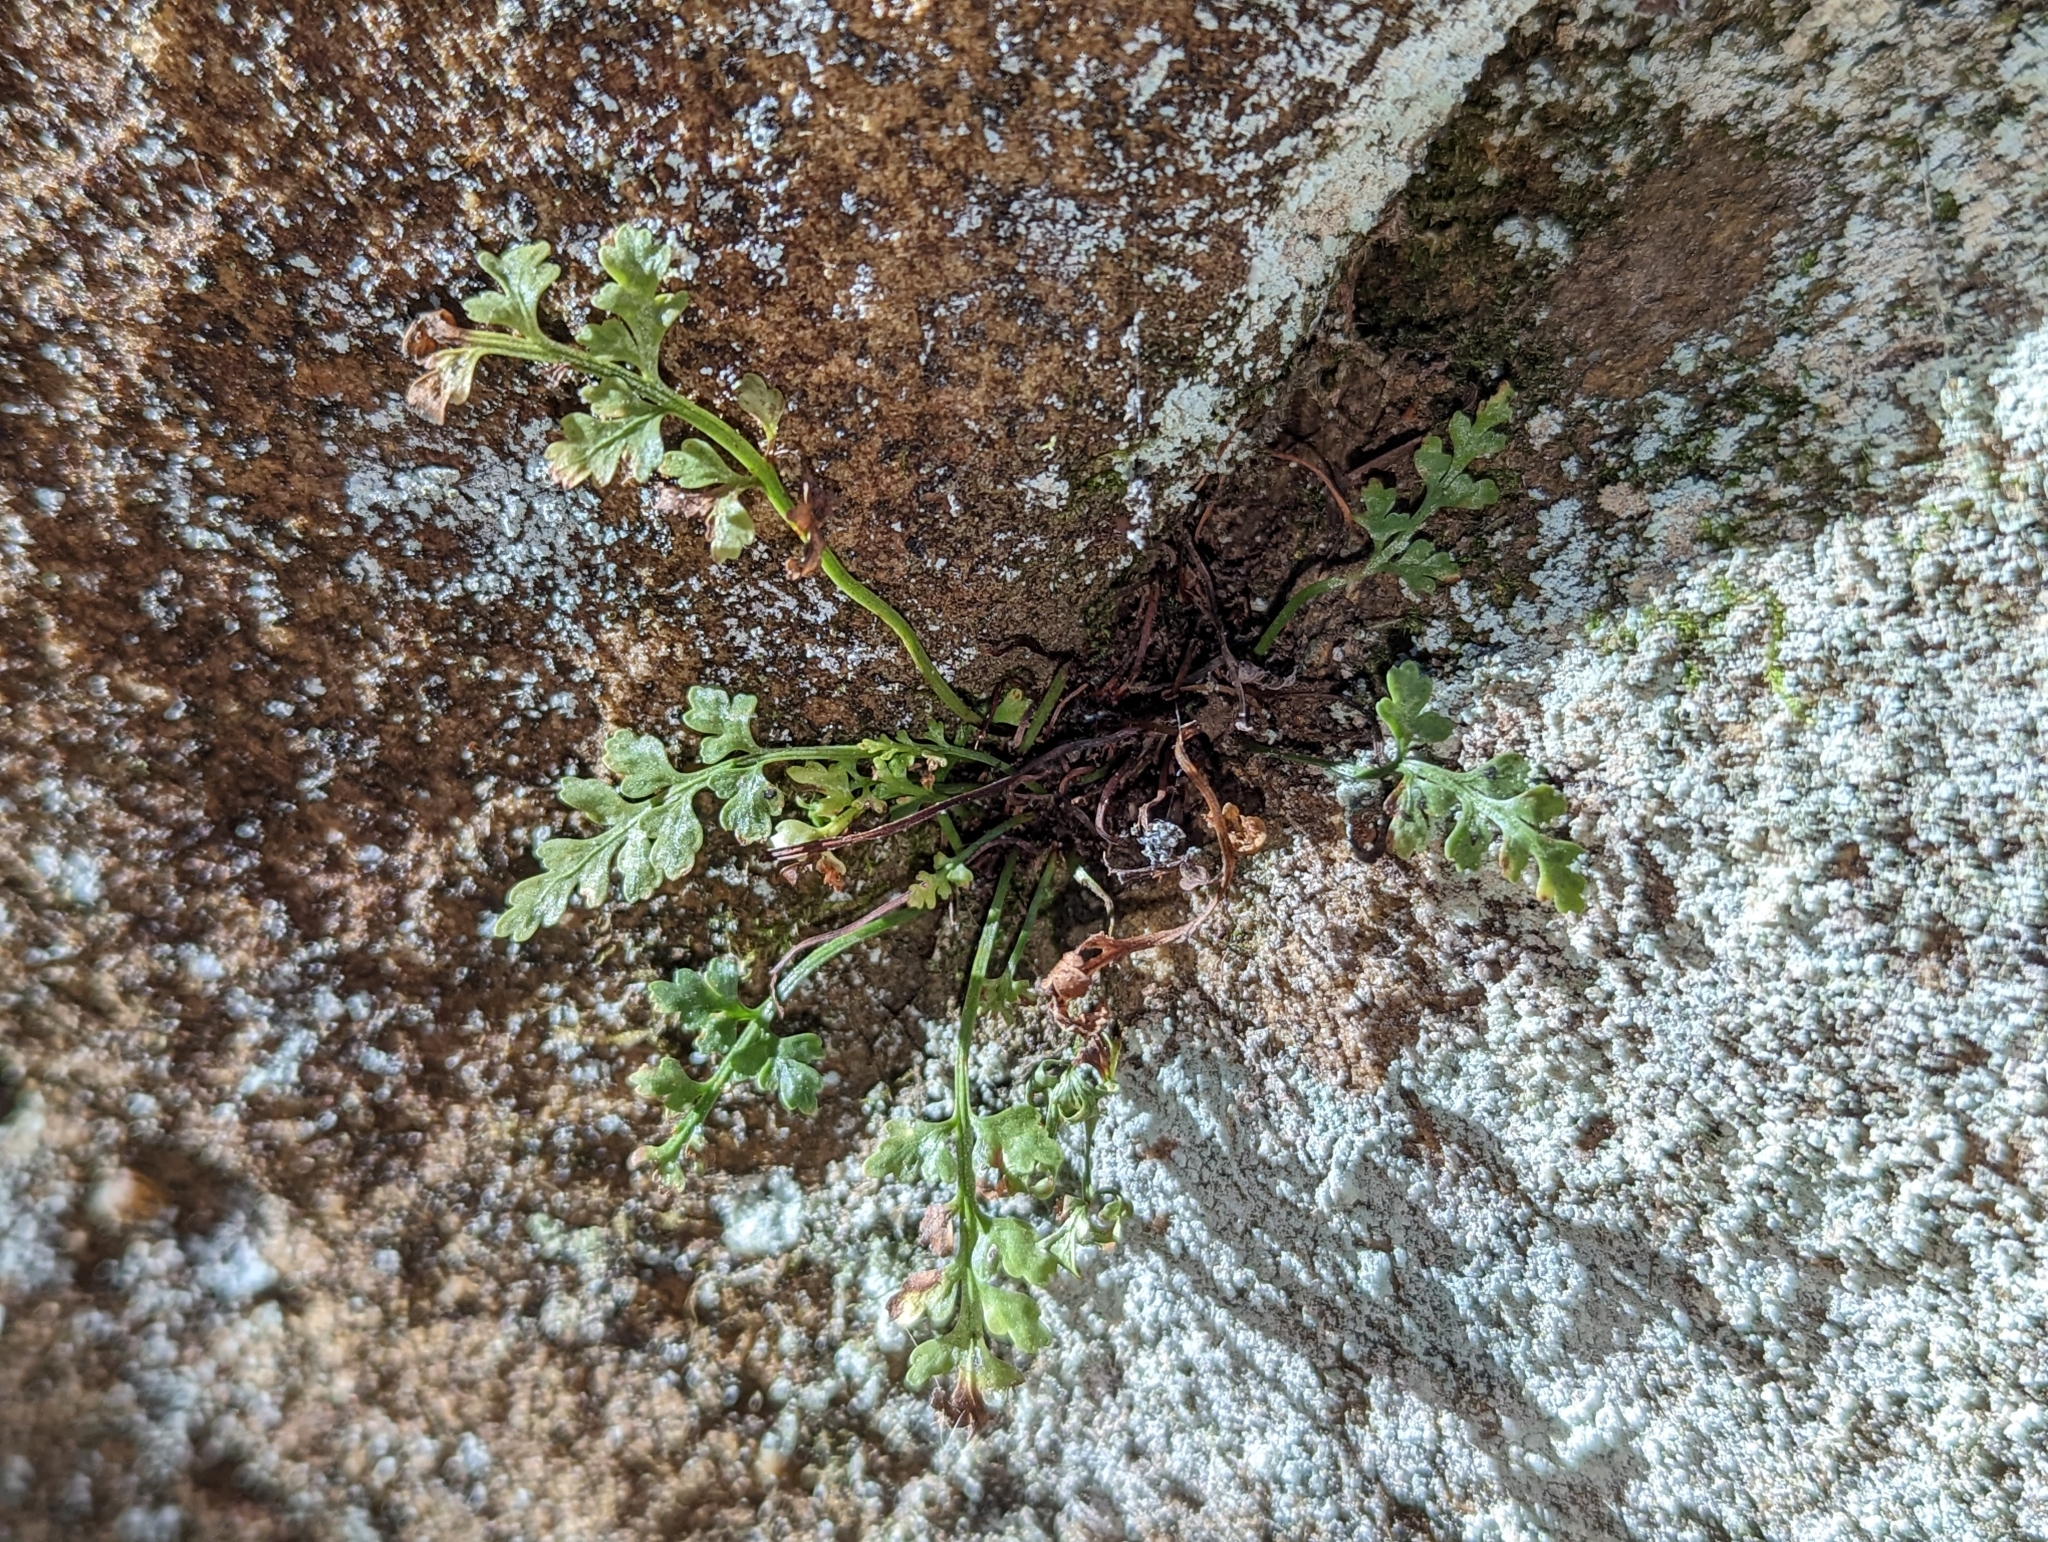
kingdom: Plantae
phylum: Tracheophyta
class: Polypodiopsida
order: Polypodiales
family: Aspleniaceae
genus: Asplenium
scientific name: Asplenium montanum
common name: Mountain spleenwort
